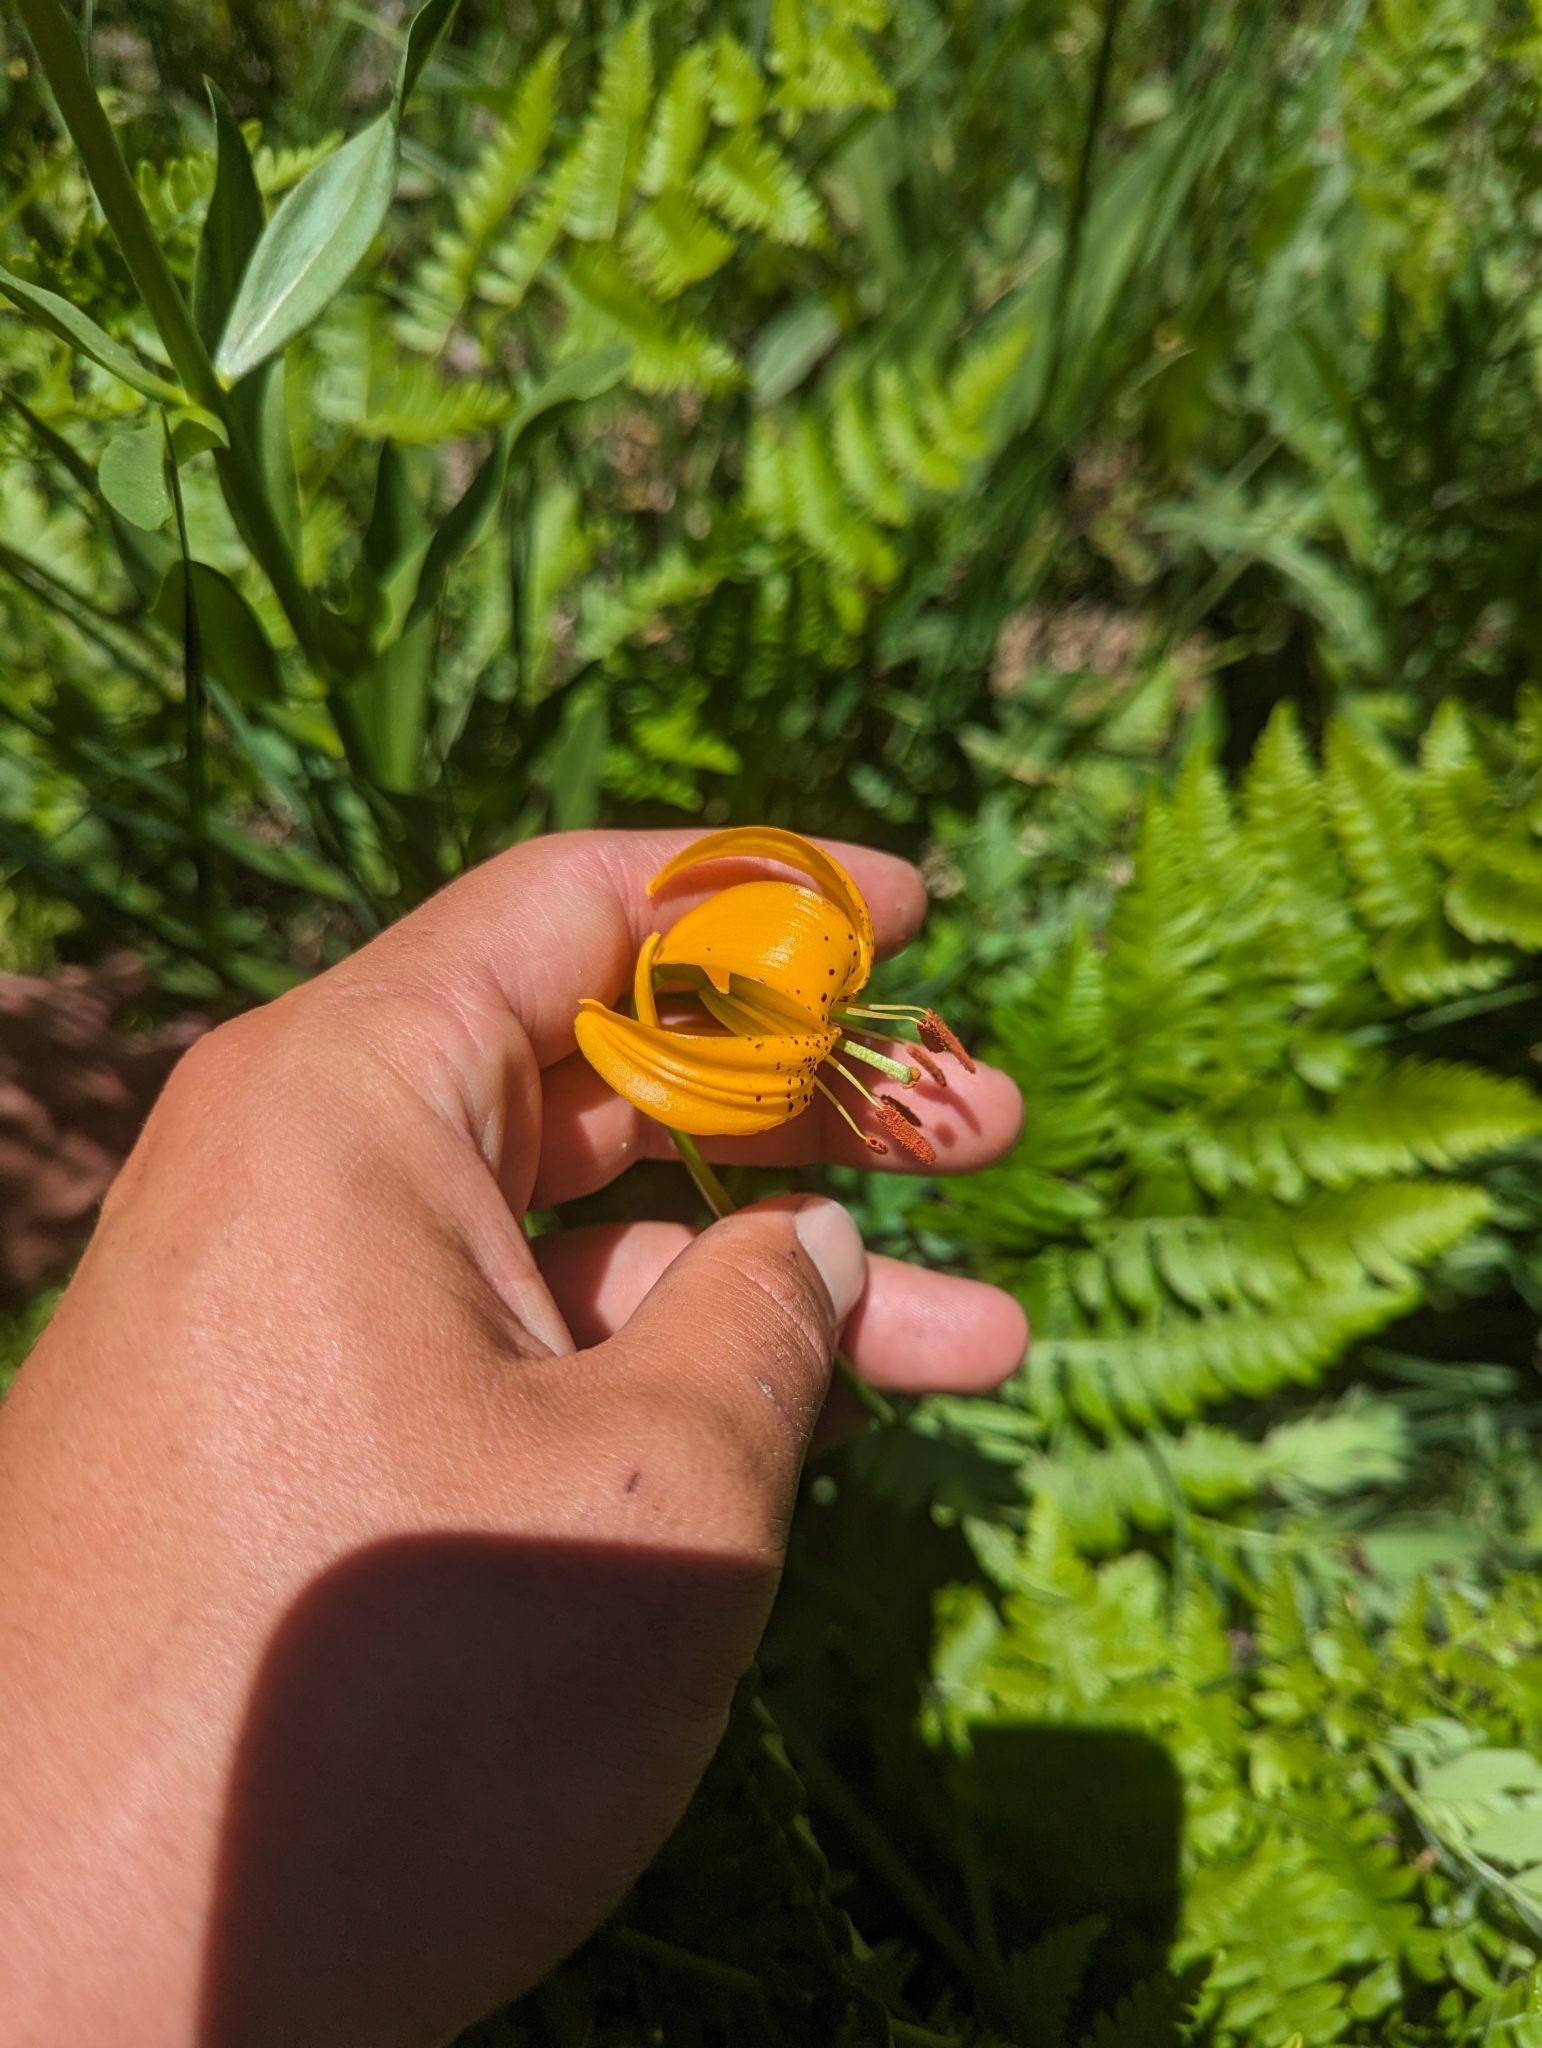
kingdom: Plantae
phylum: Tracheophyta
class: Liliopsida
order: Liliales
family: Liliaceae
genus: Lilium
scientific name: Lilium kelleyanum
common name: Kelley's lily
